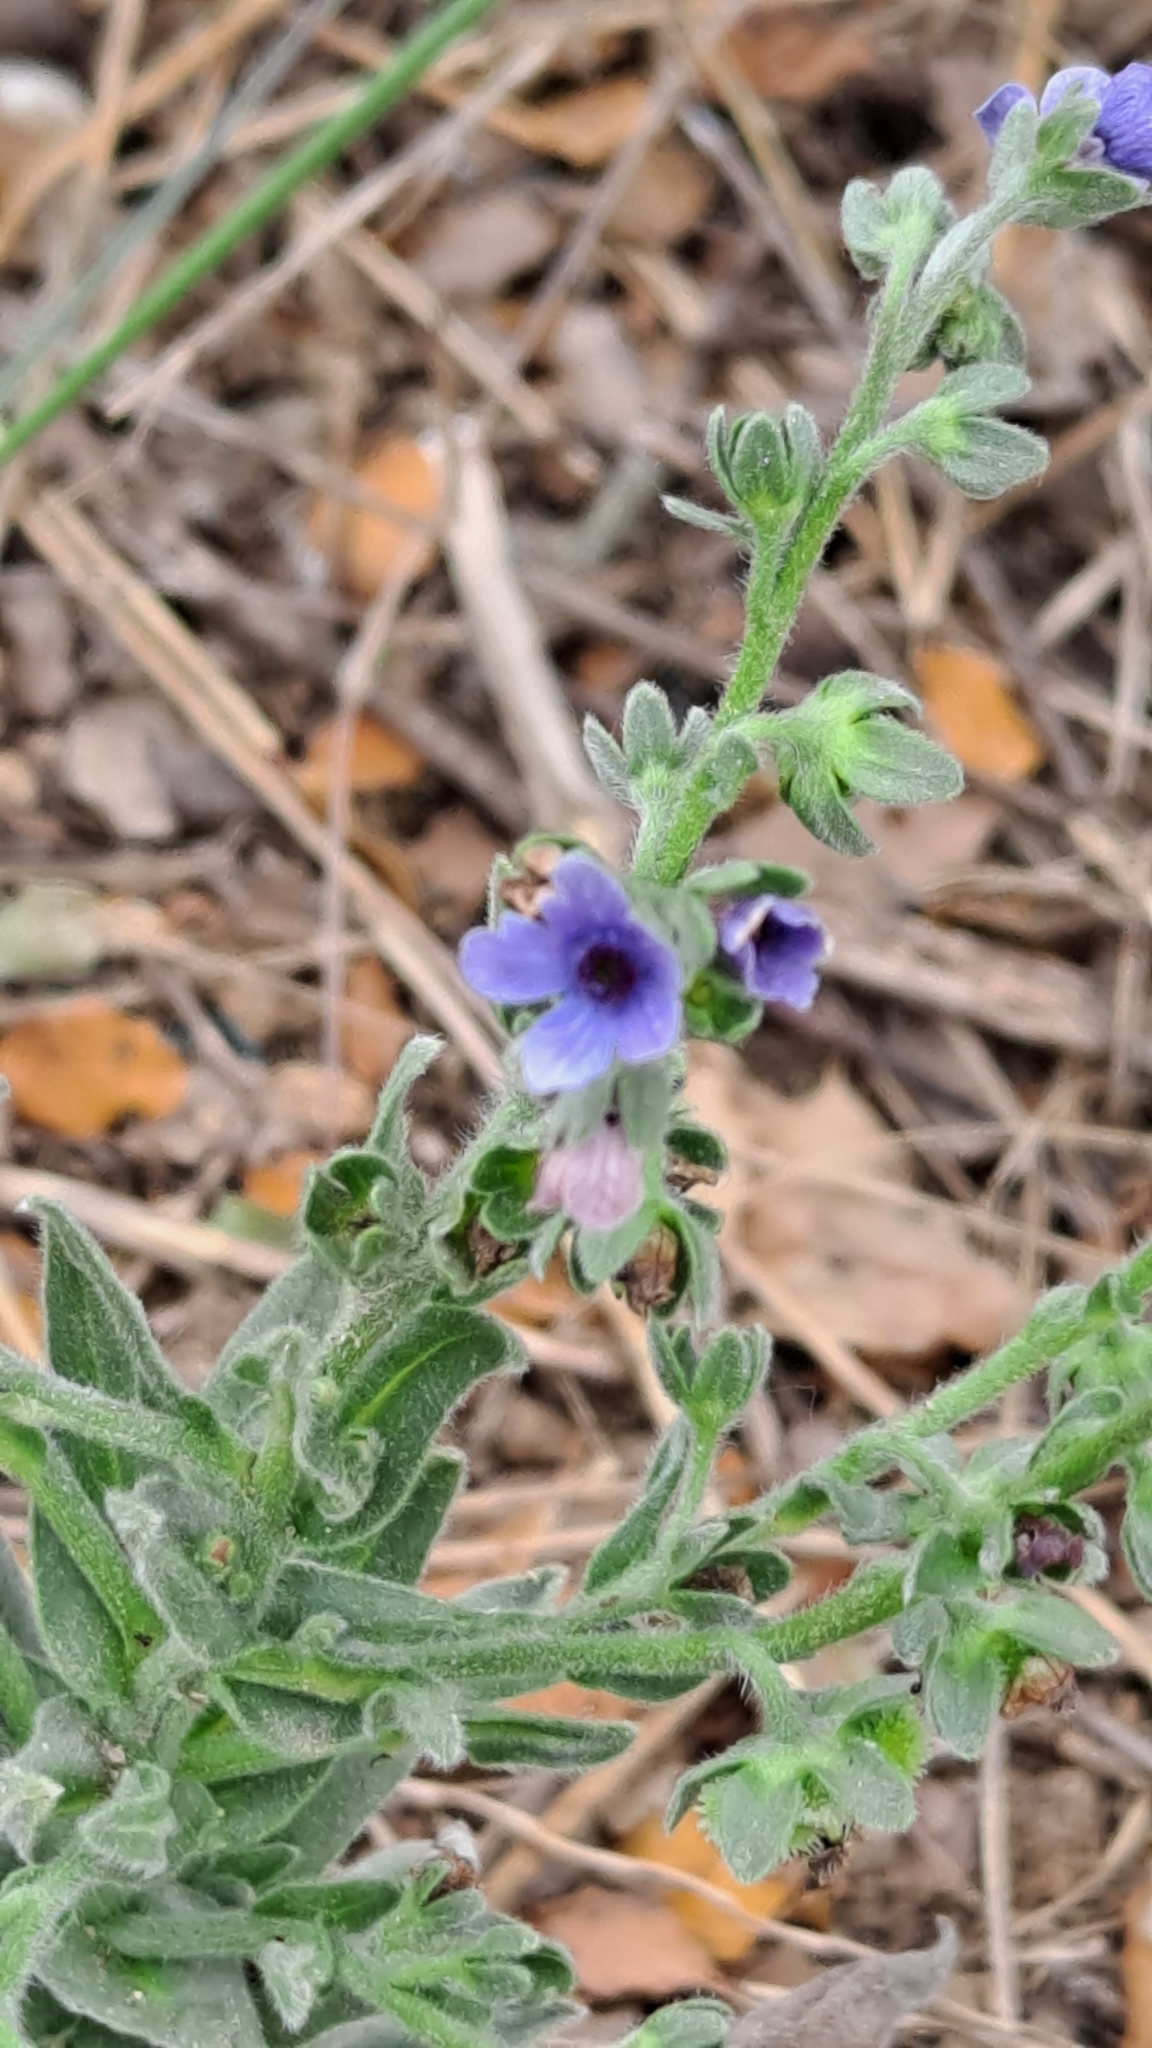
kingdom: Plantae
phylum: Tracheophyta
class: Magnoliopsida
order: Boraginales
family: Boraginaceae
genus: Cynoglossum
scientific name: Cynoglossum creticum
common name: Blue hound's tongue
